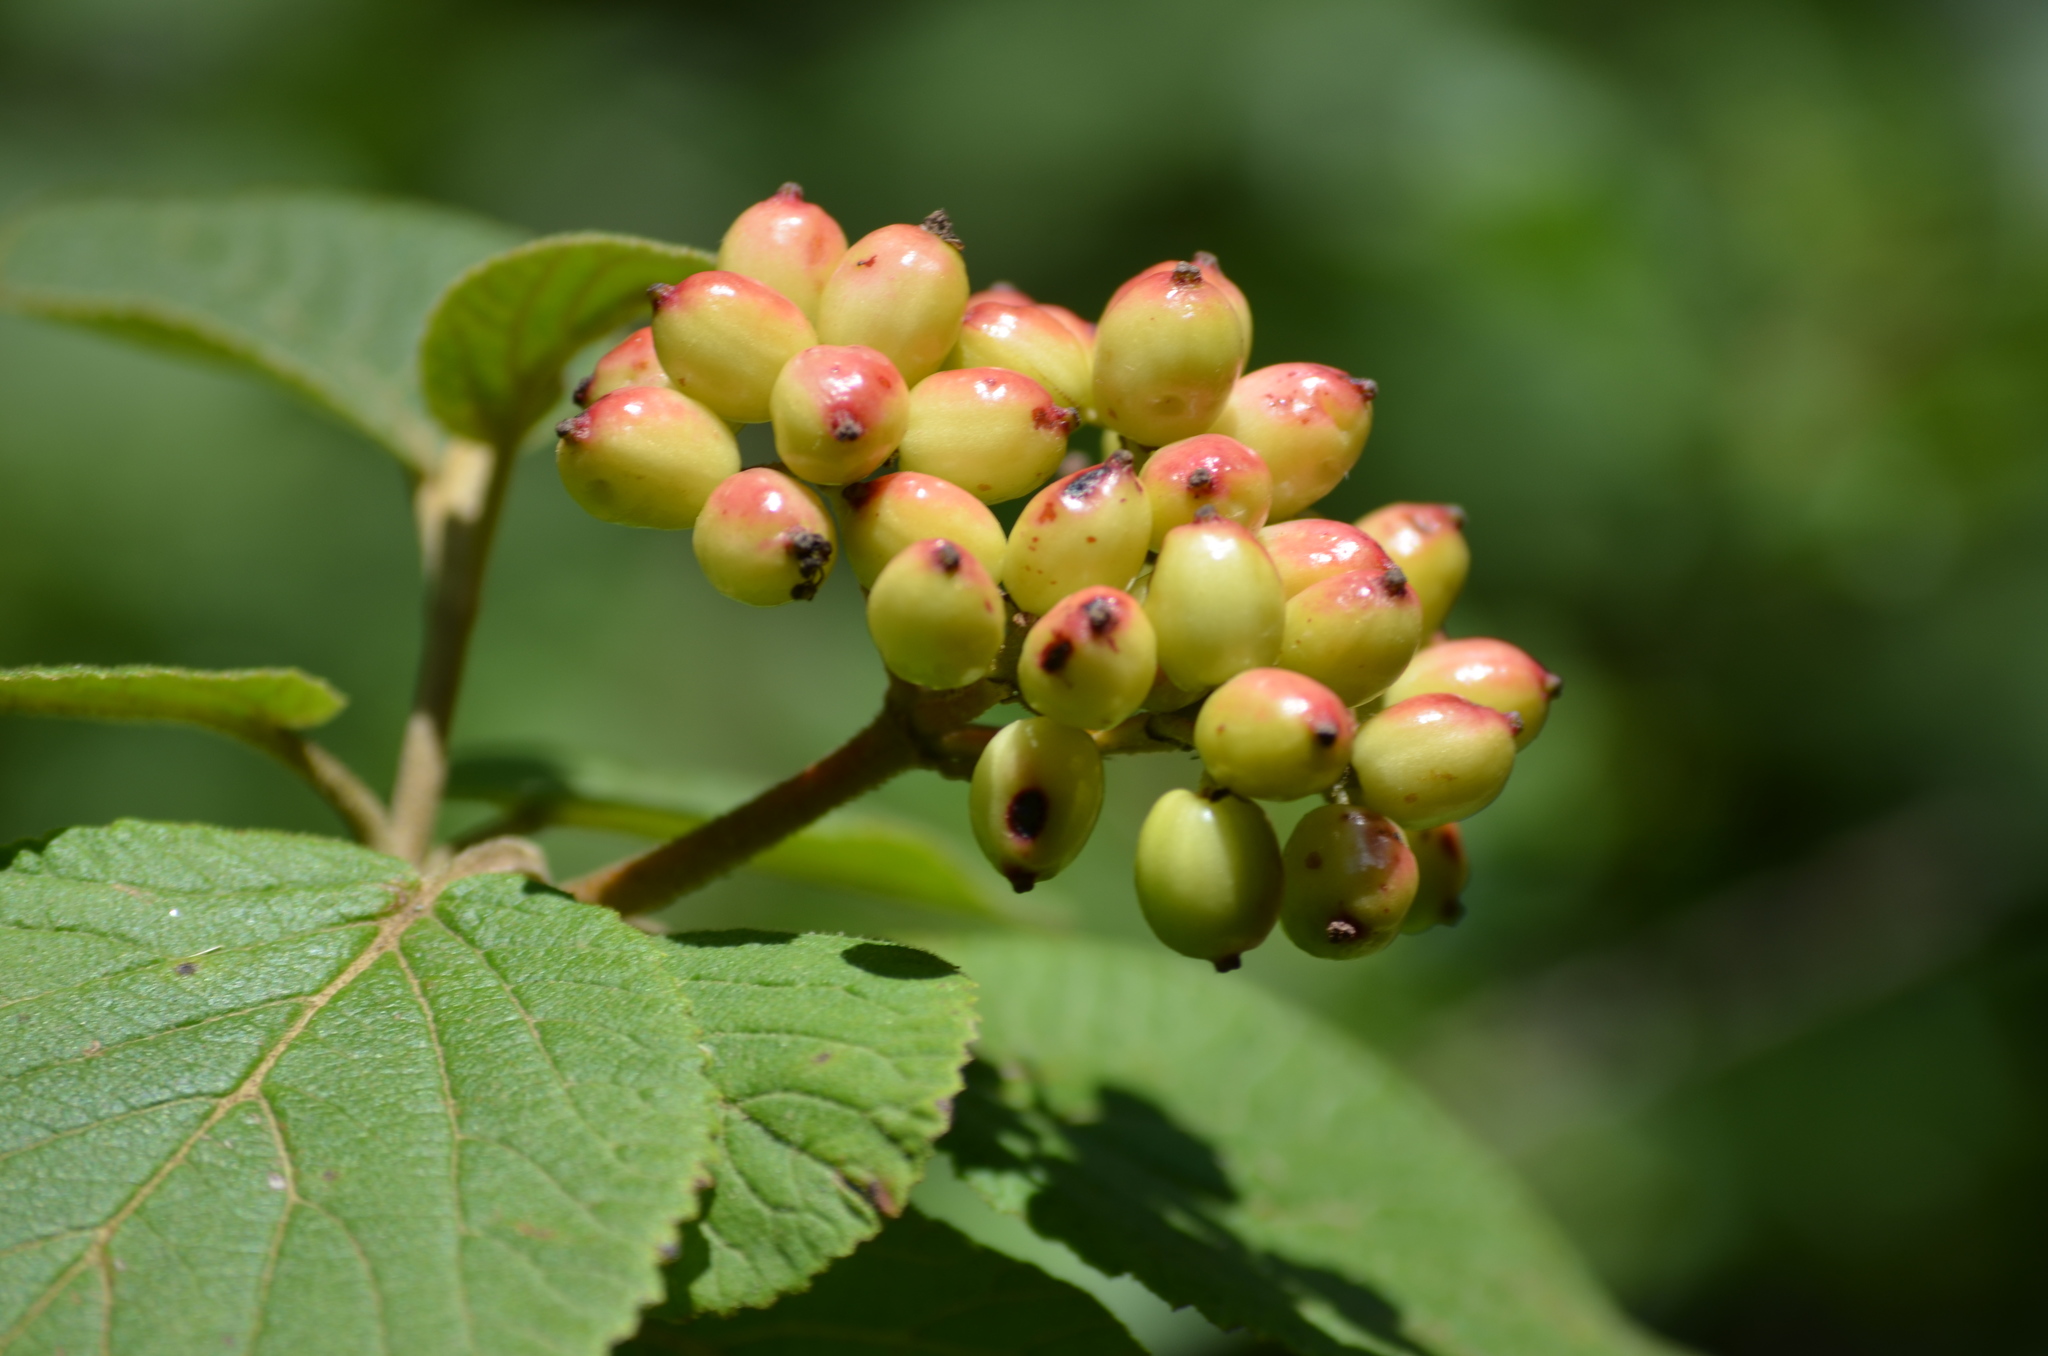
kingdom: Plantae
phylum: Tracheophyta
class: Magnoliopsida
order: Dipsacales
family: Viburnaceae
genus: Viburnum
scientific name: Viburnum lantana
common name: Wayfaring tree
